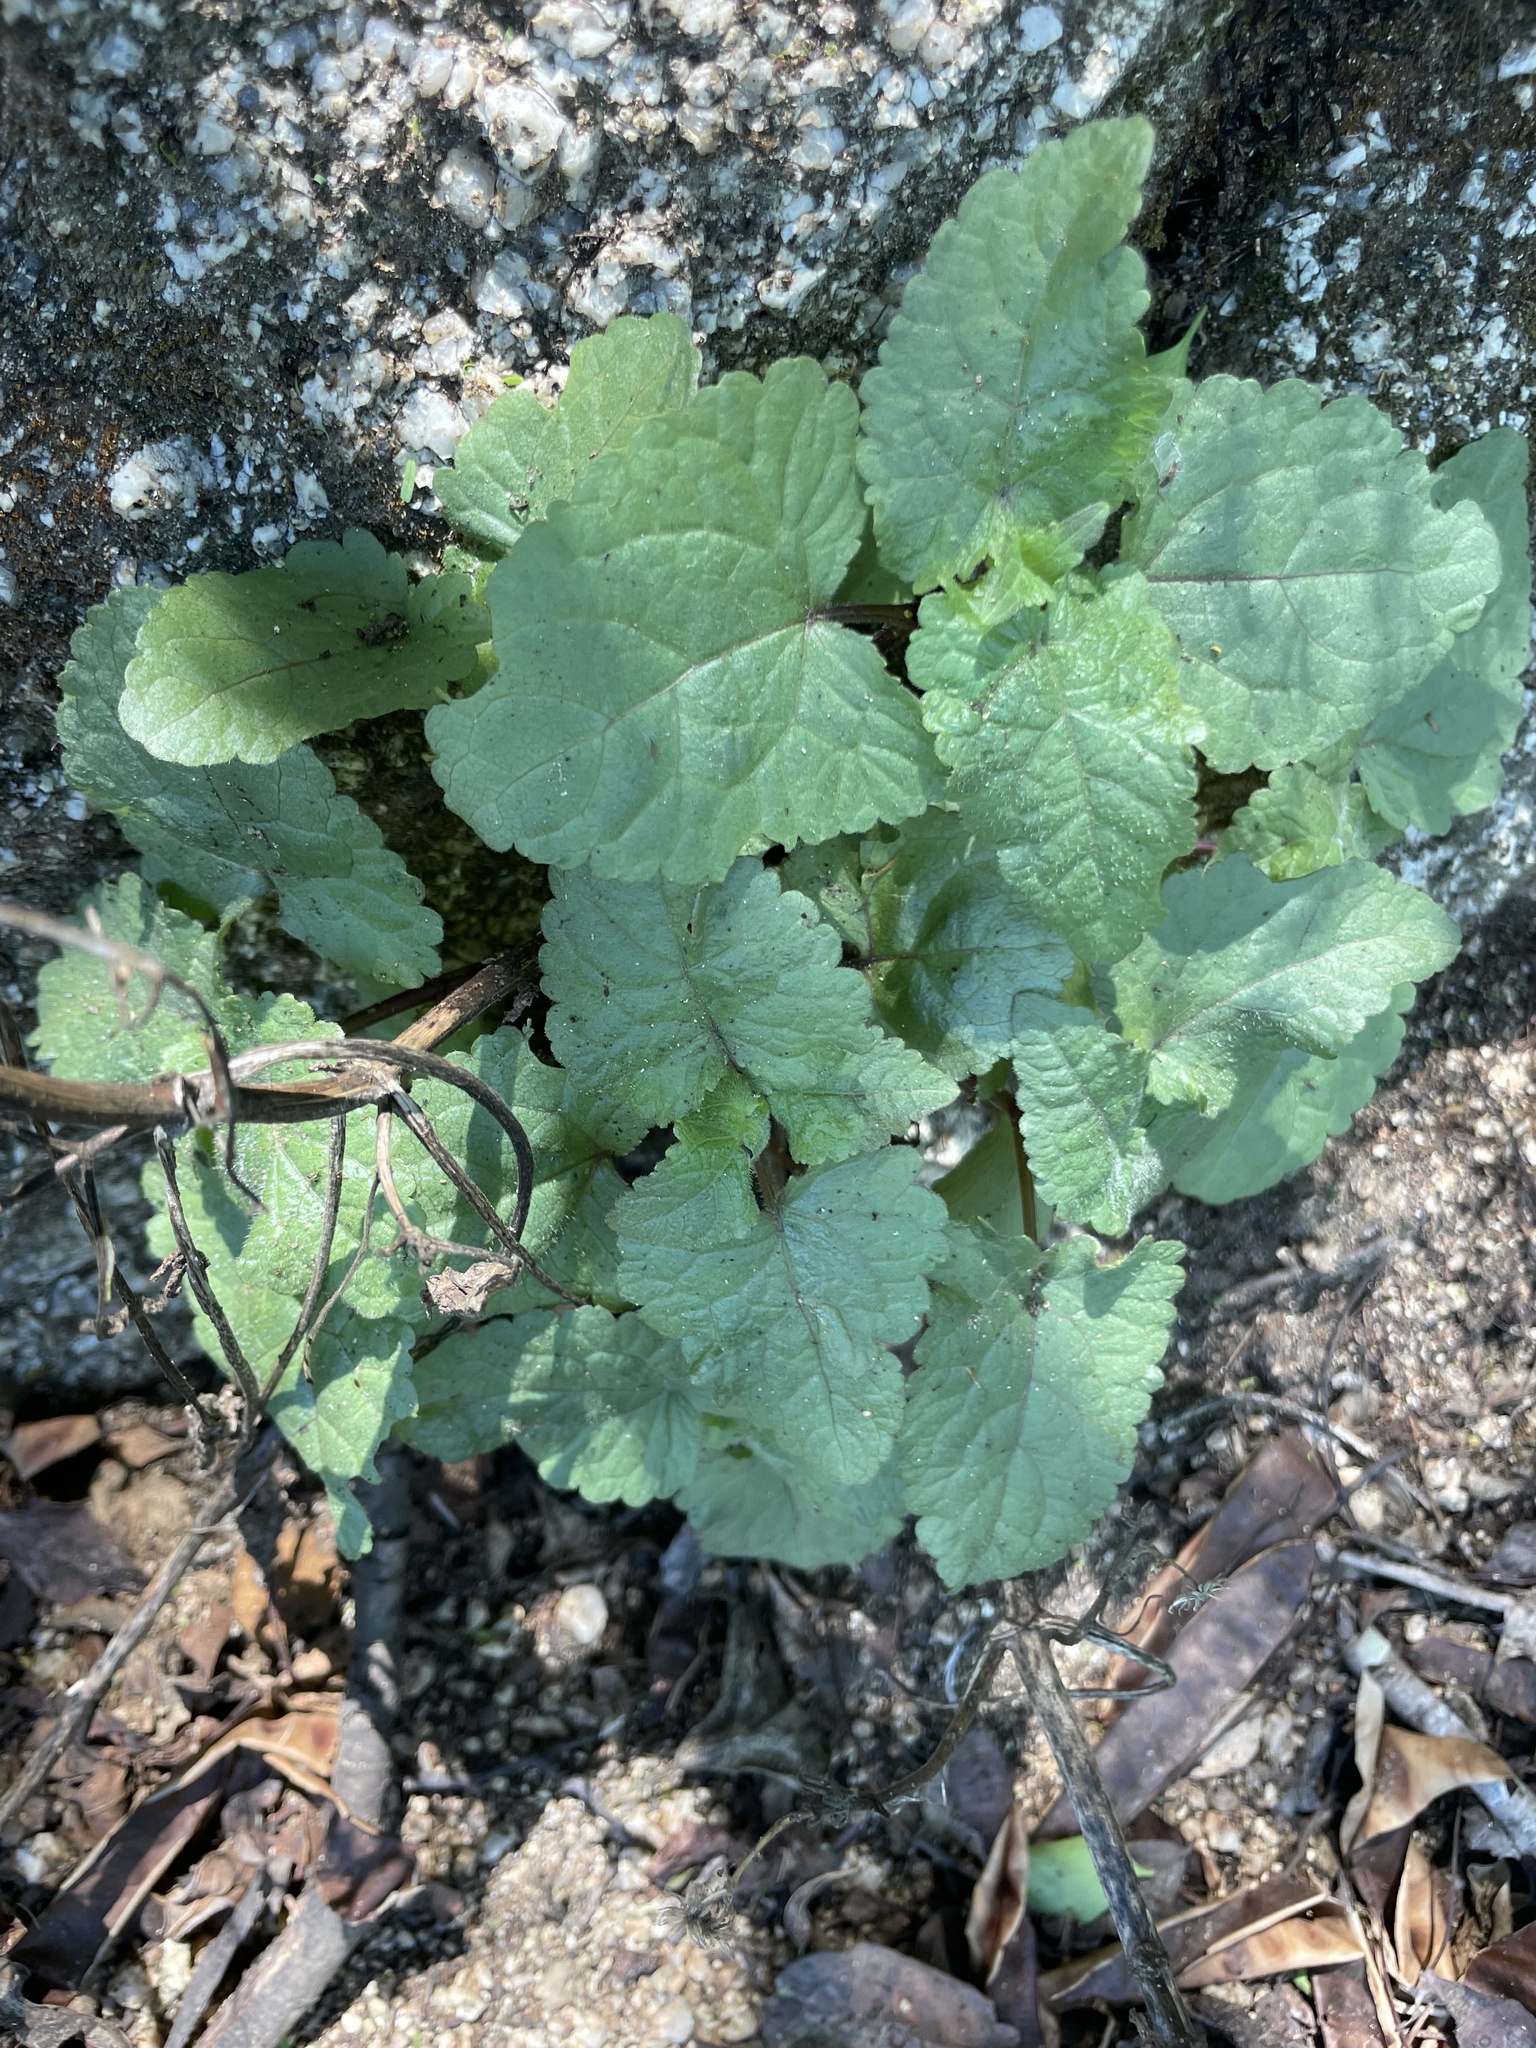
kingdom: Plantae
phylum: Tracheophyta
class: Magnoliopsida
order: Cucurbitales
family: Begoniaceae
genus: Begonia
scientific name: Begonia palmeri
